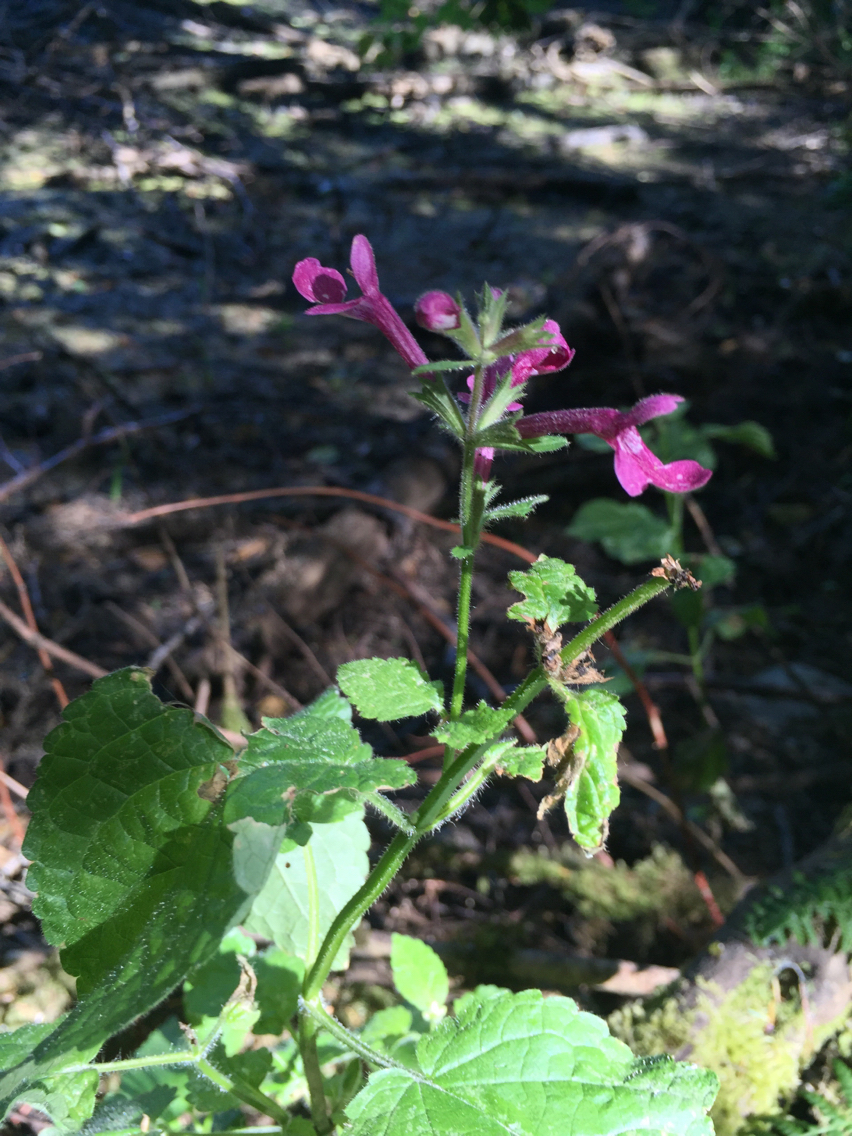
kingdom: Plantae
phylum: Tracheophyta
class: Magnoliopsida
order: Lamiales
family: Lamiaceae
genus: Stachys
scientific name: Stachys chamissonis
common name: Coastal hedge-nettle
